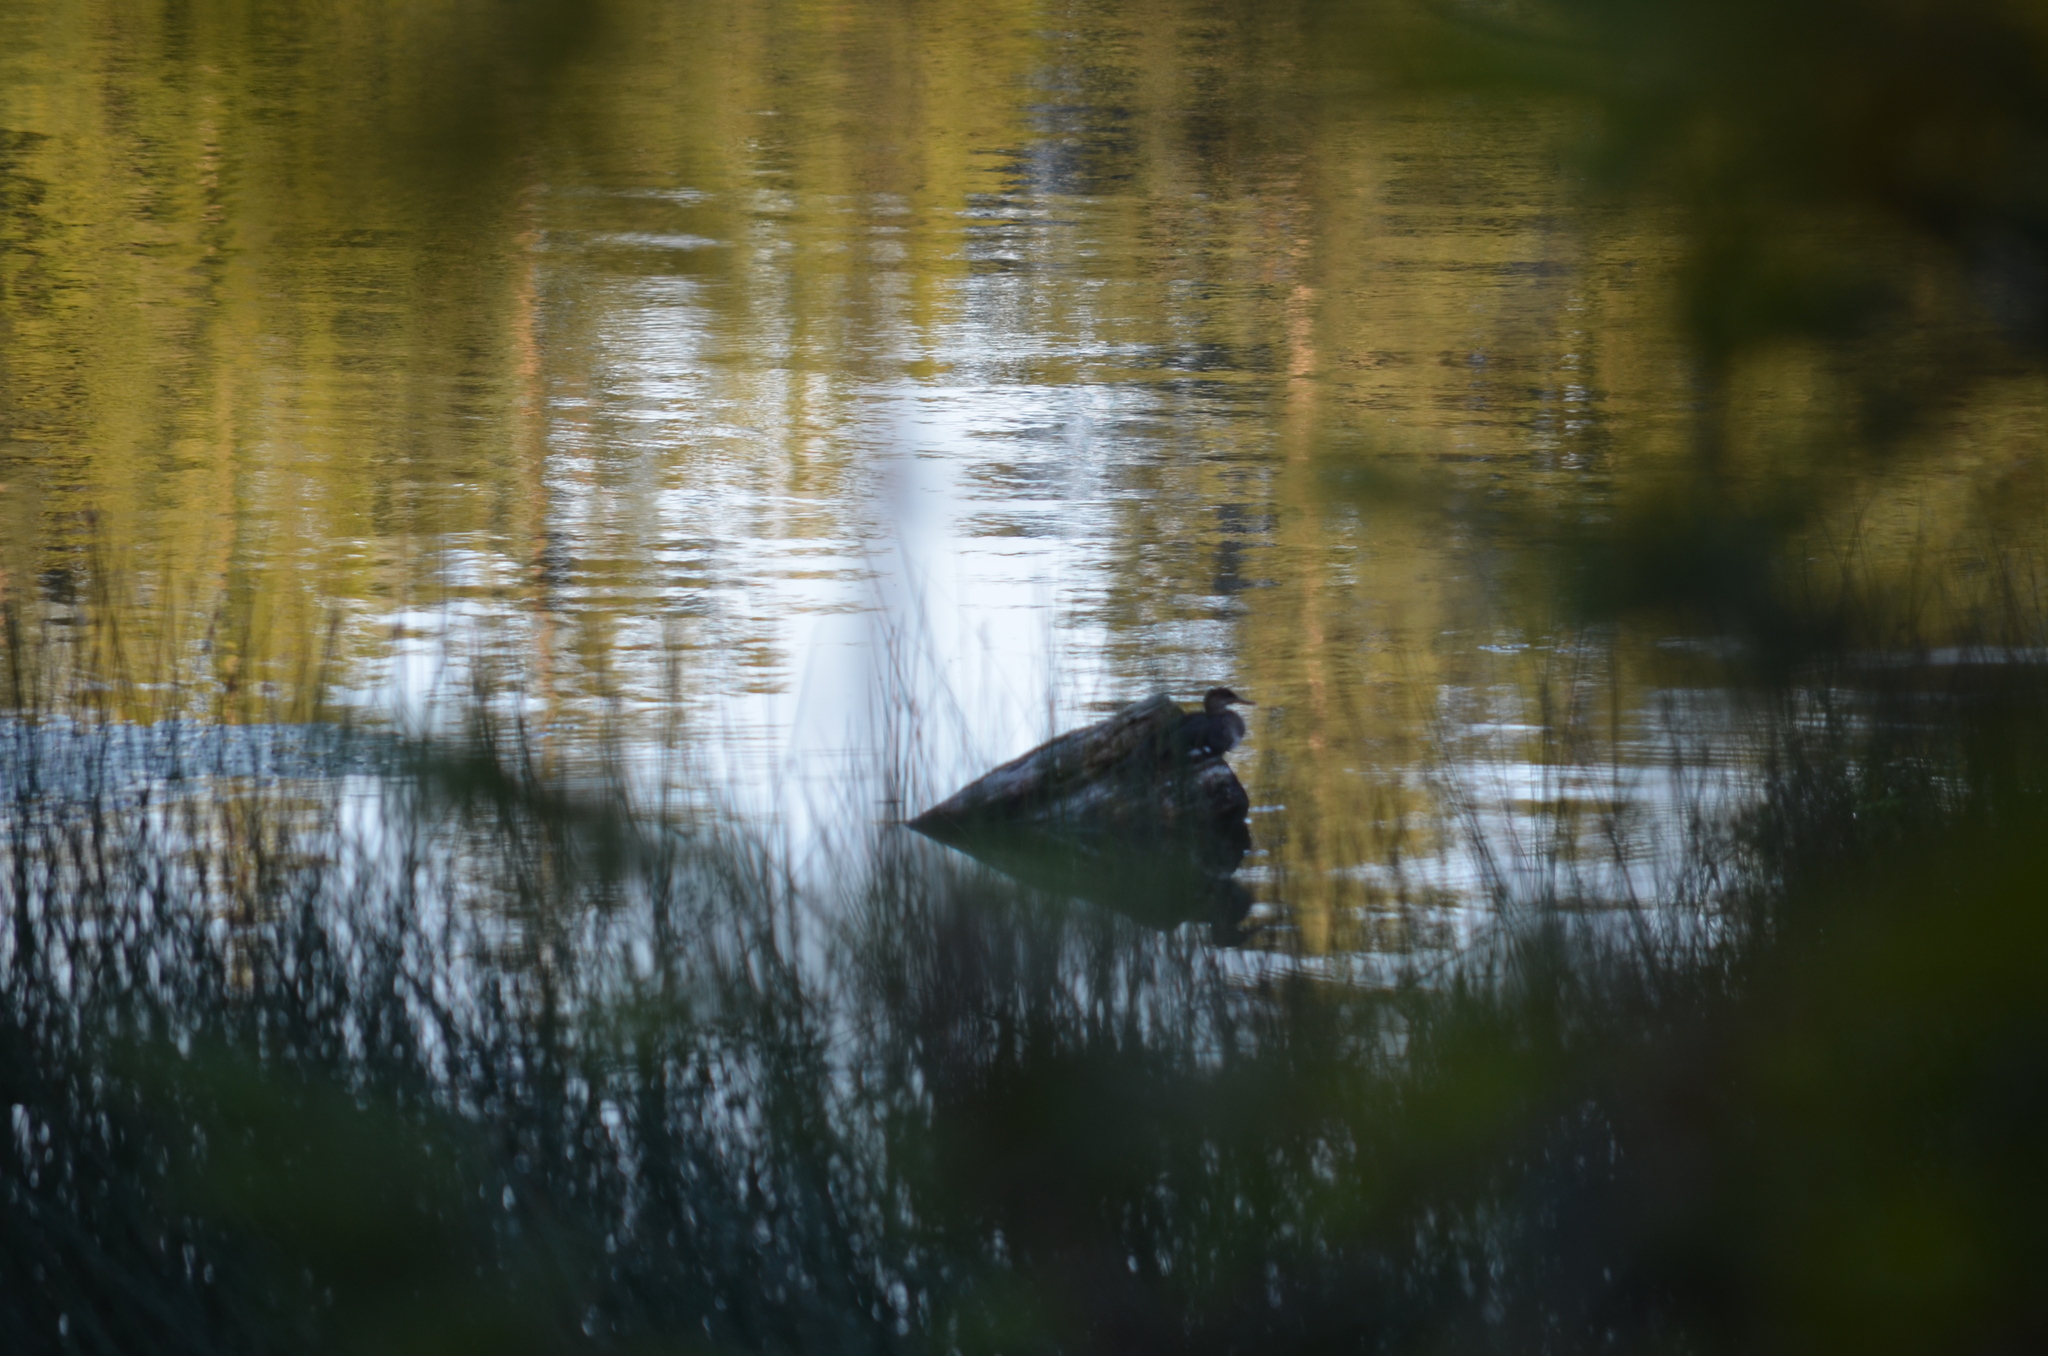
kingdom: Animalia
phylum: Chordata
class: Aves
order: Anseriformes
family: Anatidae
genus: Lophodytes
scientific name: Lophodytes cucullatus
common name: Hooded merganser
